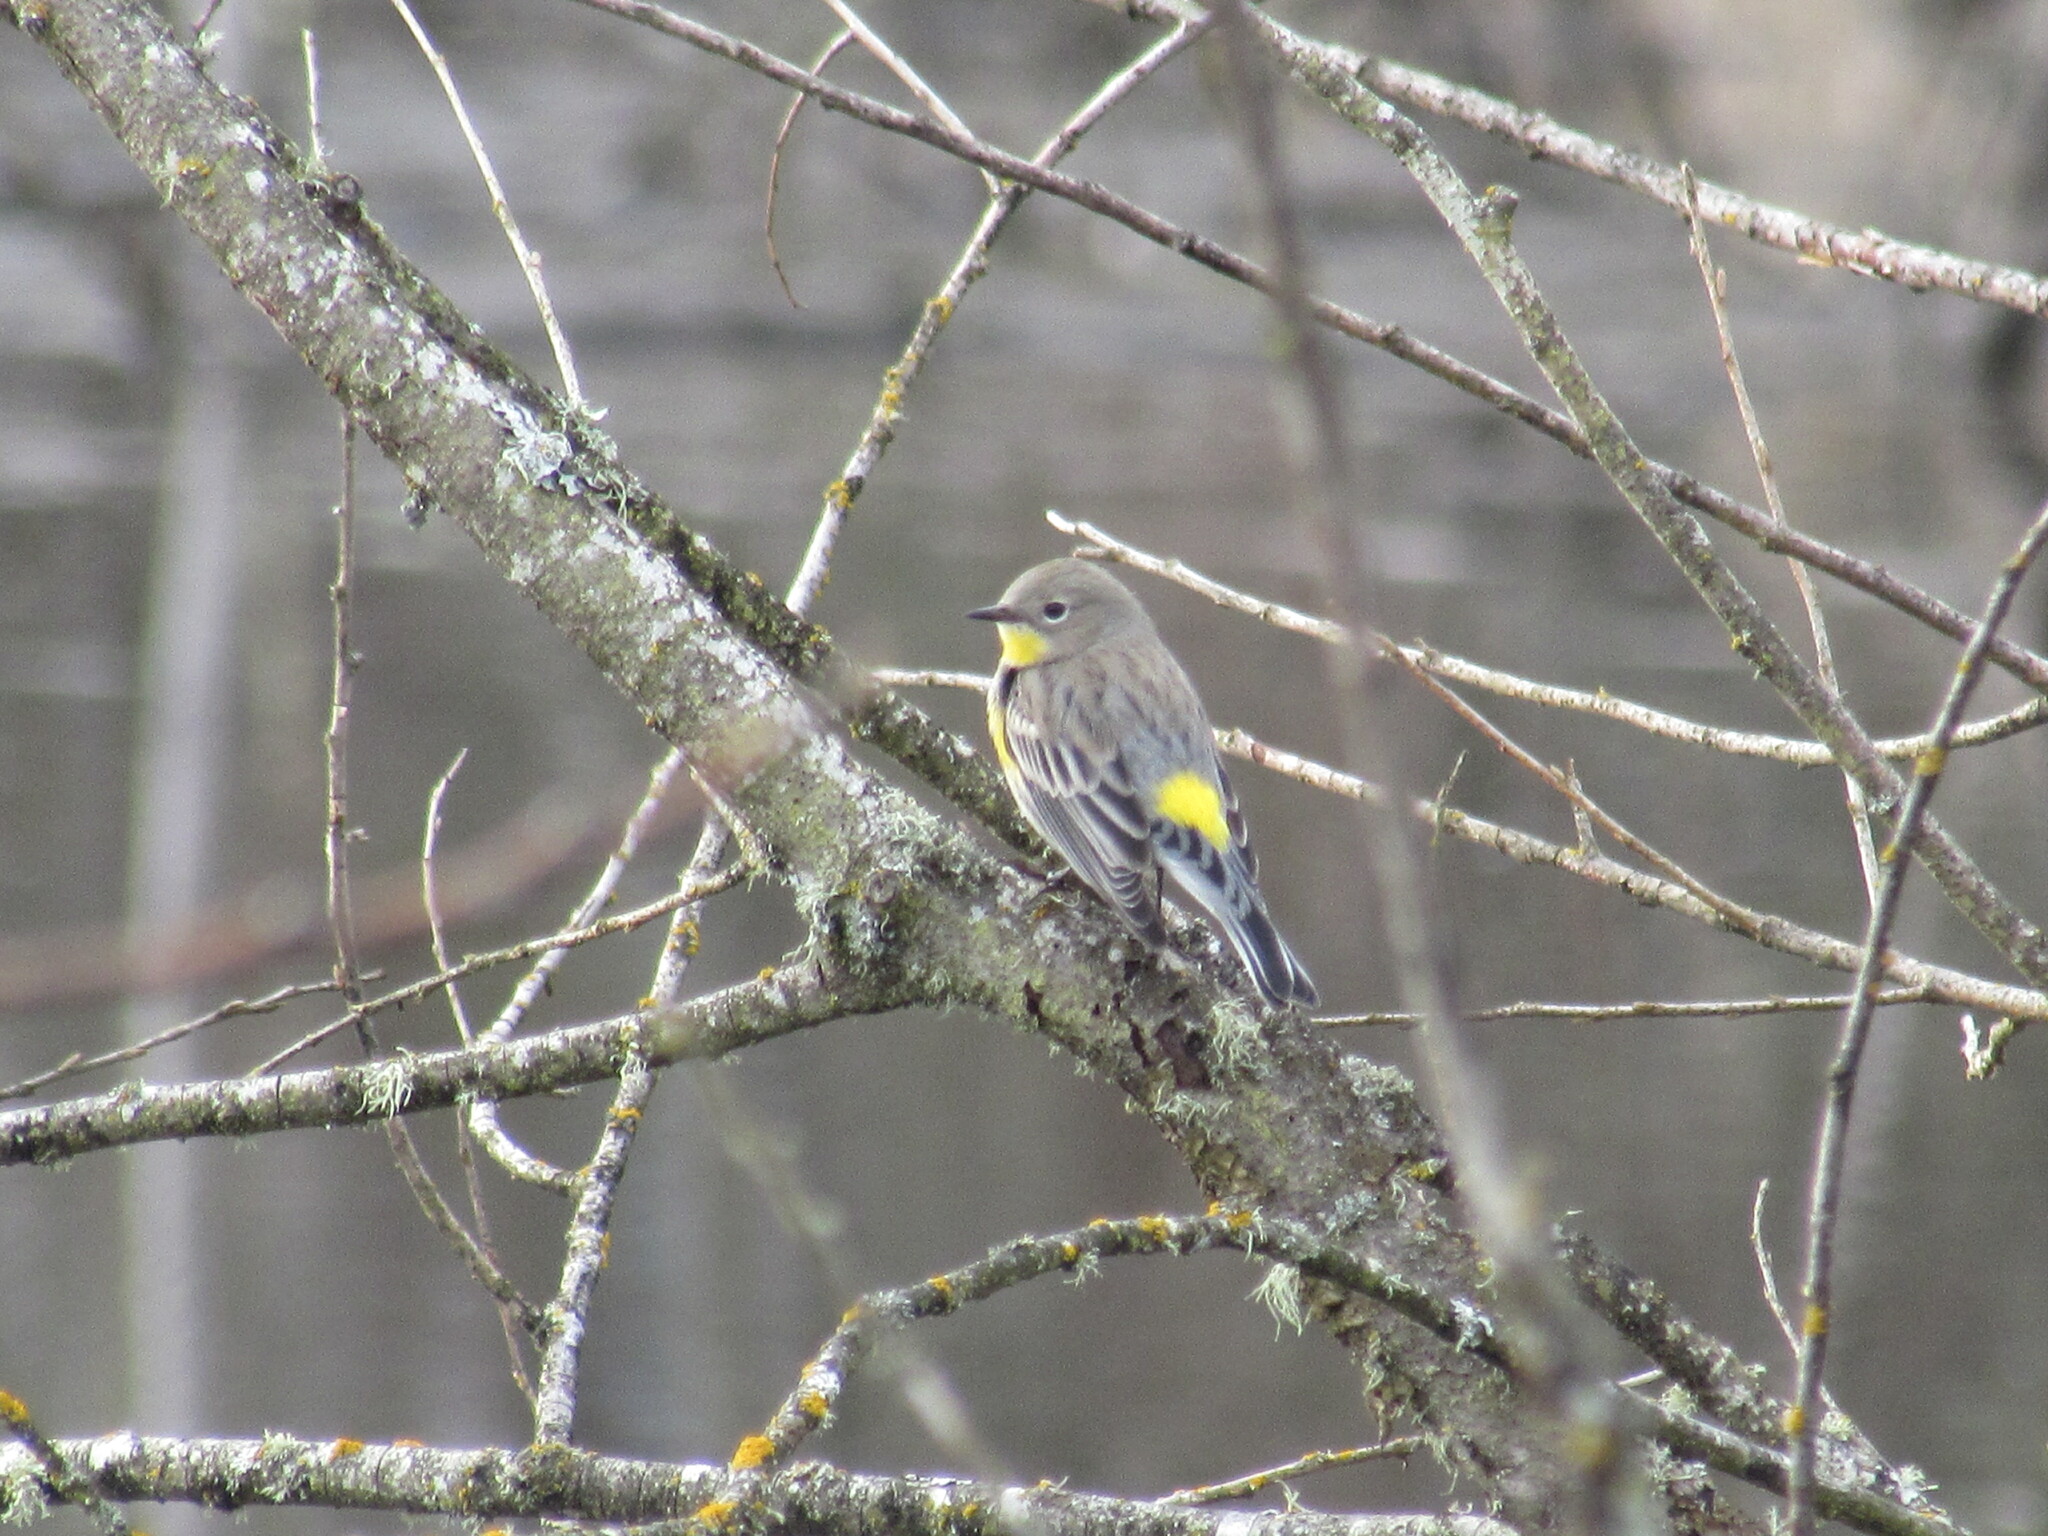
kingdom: Animalia
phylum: Chordata
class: Aves
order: Passeriformes
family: Parulidae
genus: Setophaga
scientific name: Setophaga coronata
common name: Myrtle warbler
